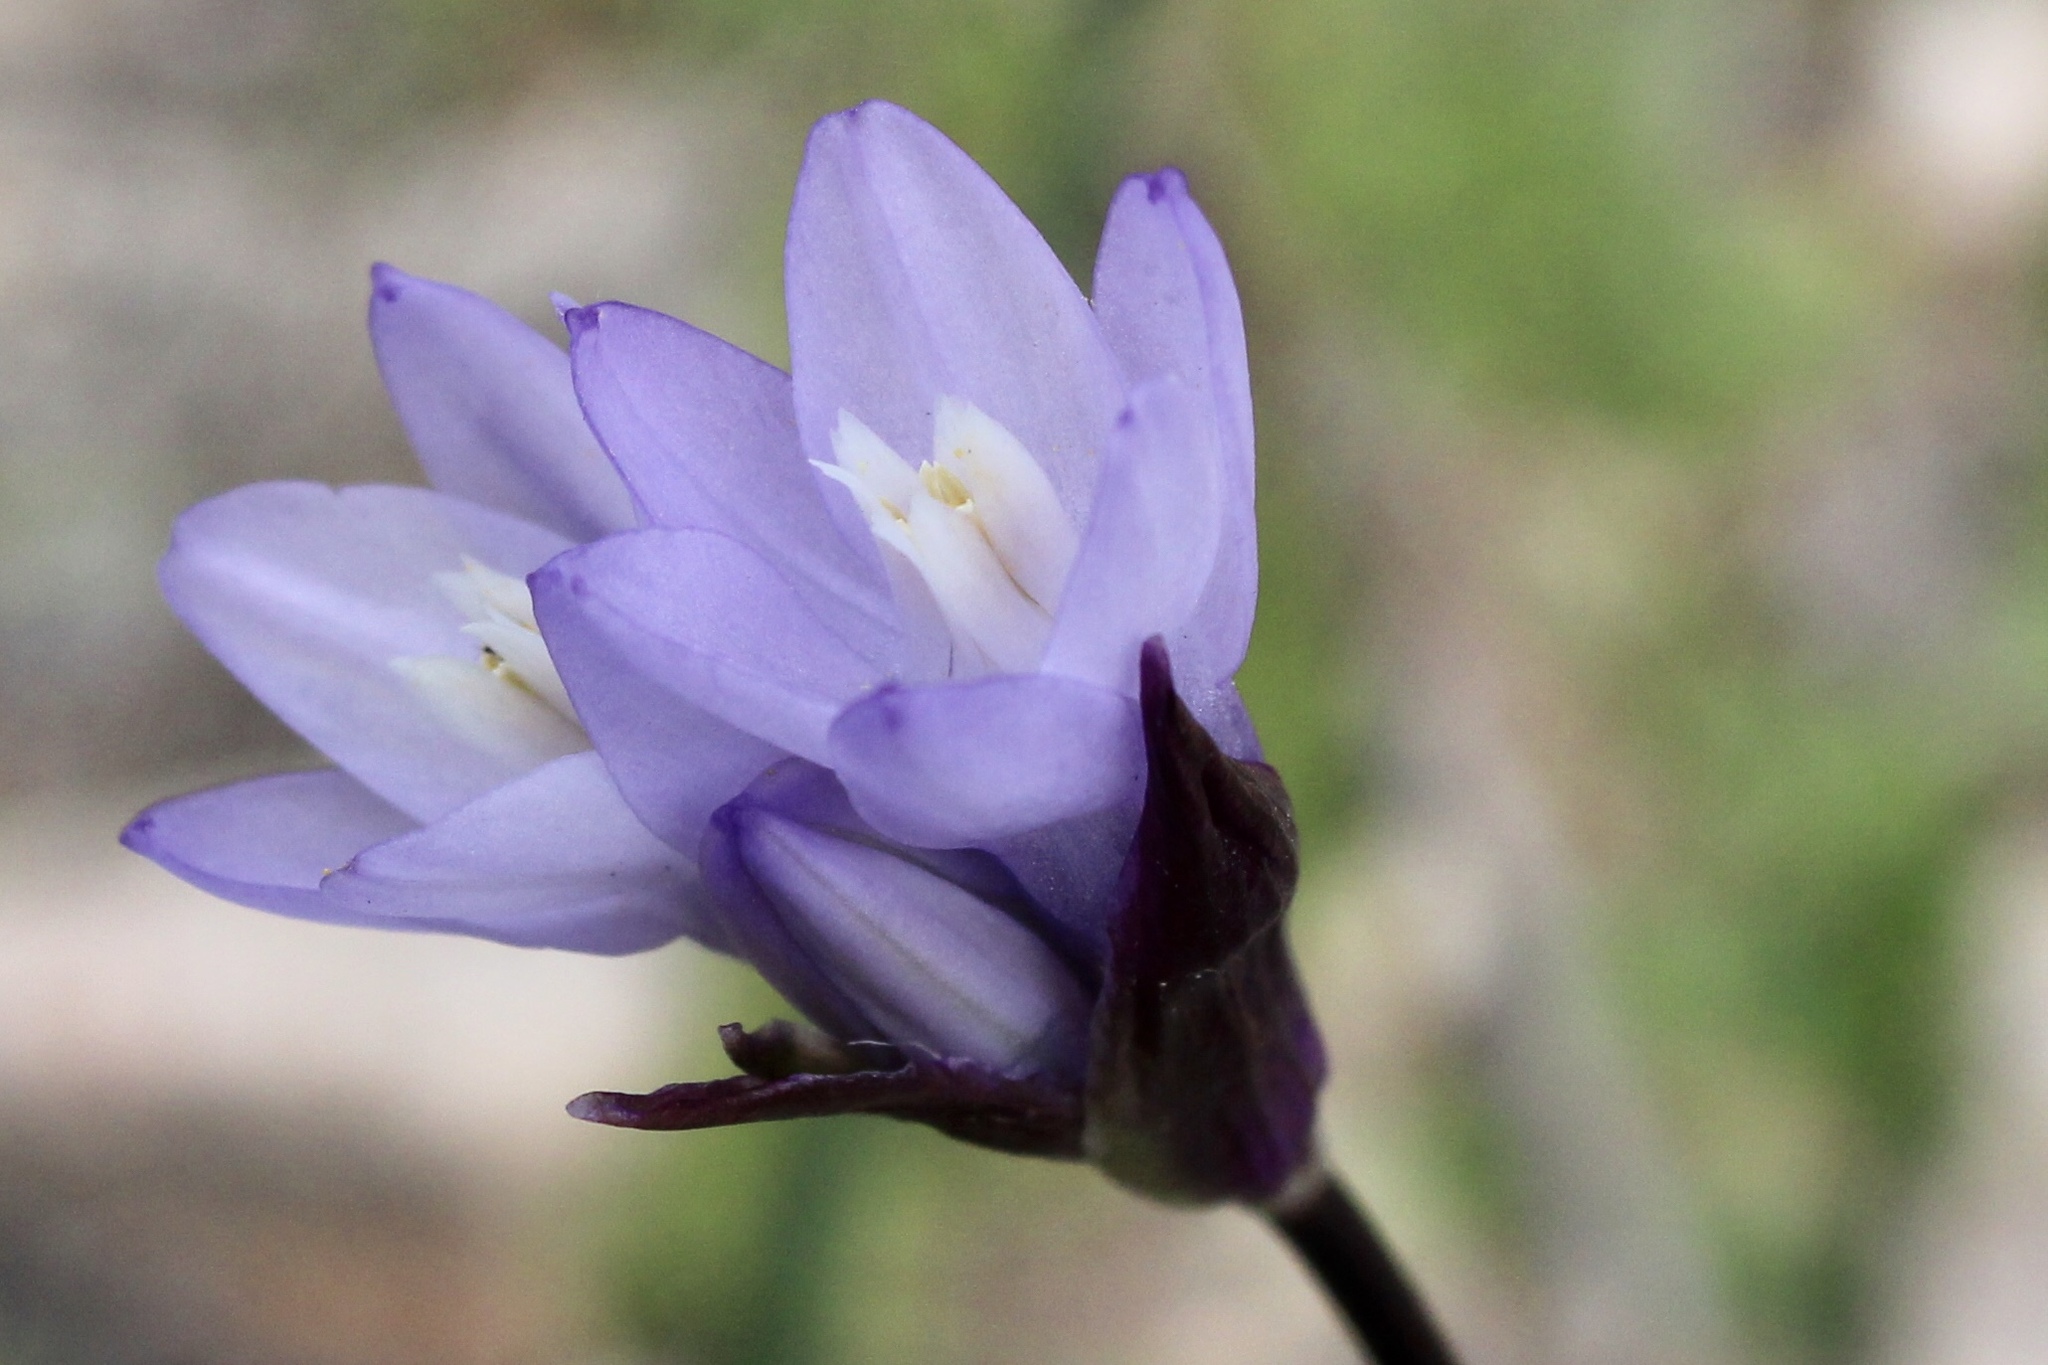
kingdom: Plantae
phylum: Tracheophyta
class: Liliopsida
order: Asparagales
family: Asparagaceae
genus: Dipterostemon
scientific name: Dipterostemon capitatus
